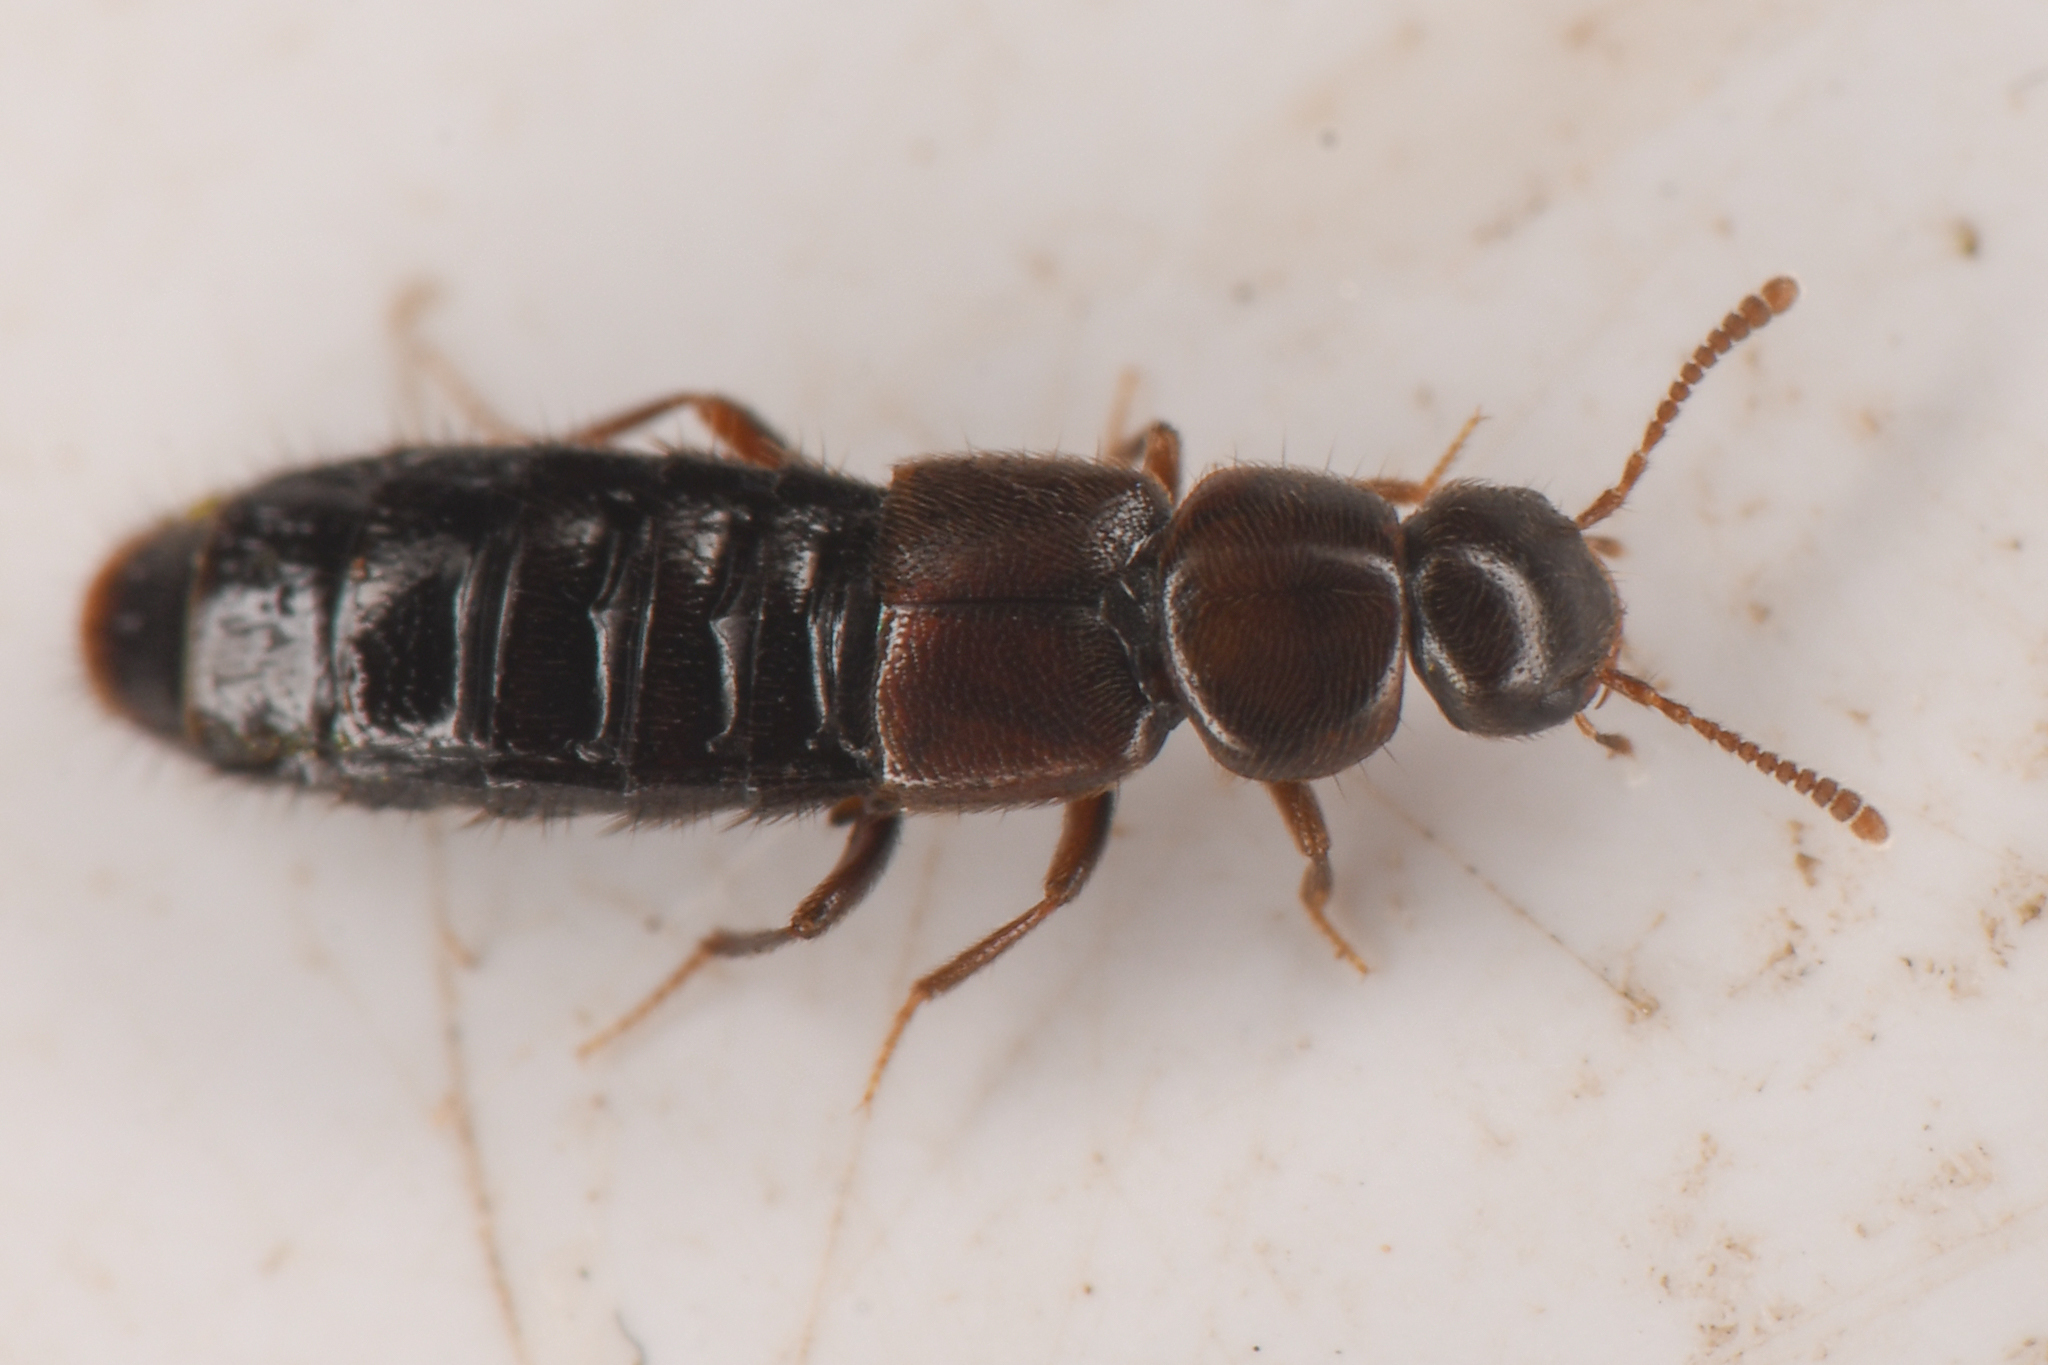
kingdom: Animalia
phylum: Arthropoda
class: Insecta
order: Coleoptera
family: Staphylinidae
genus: Gnathusa
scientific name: Gnathusa eva
